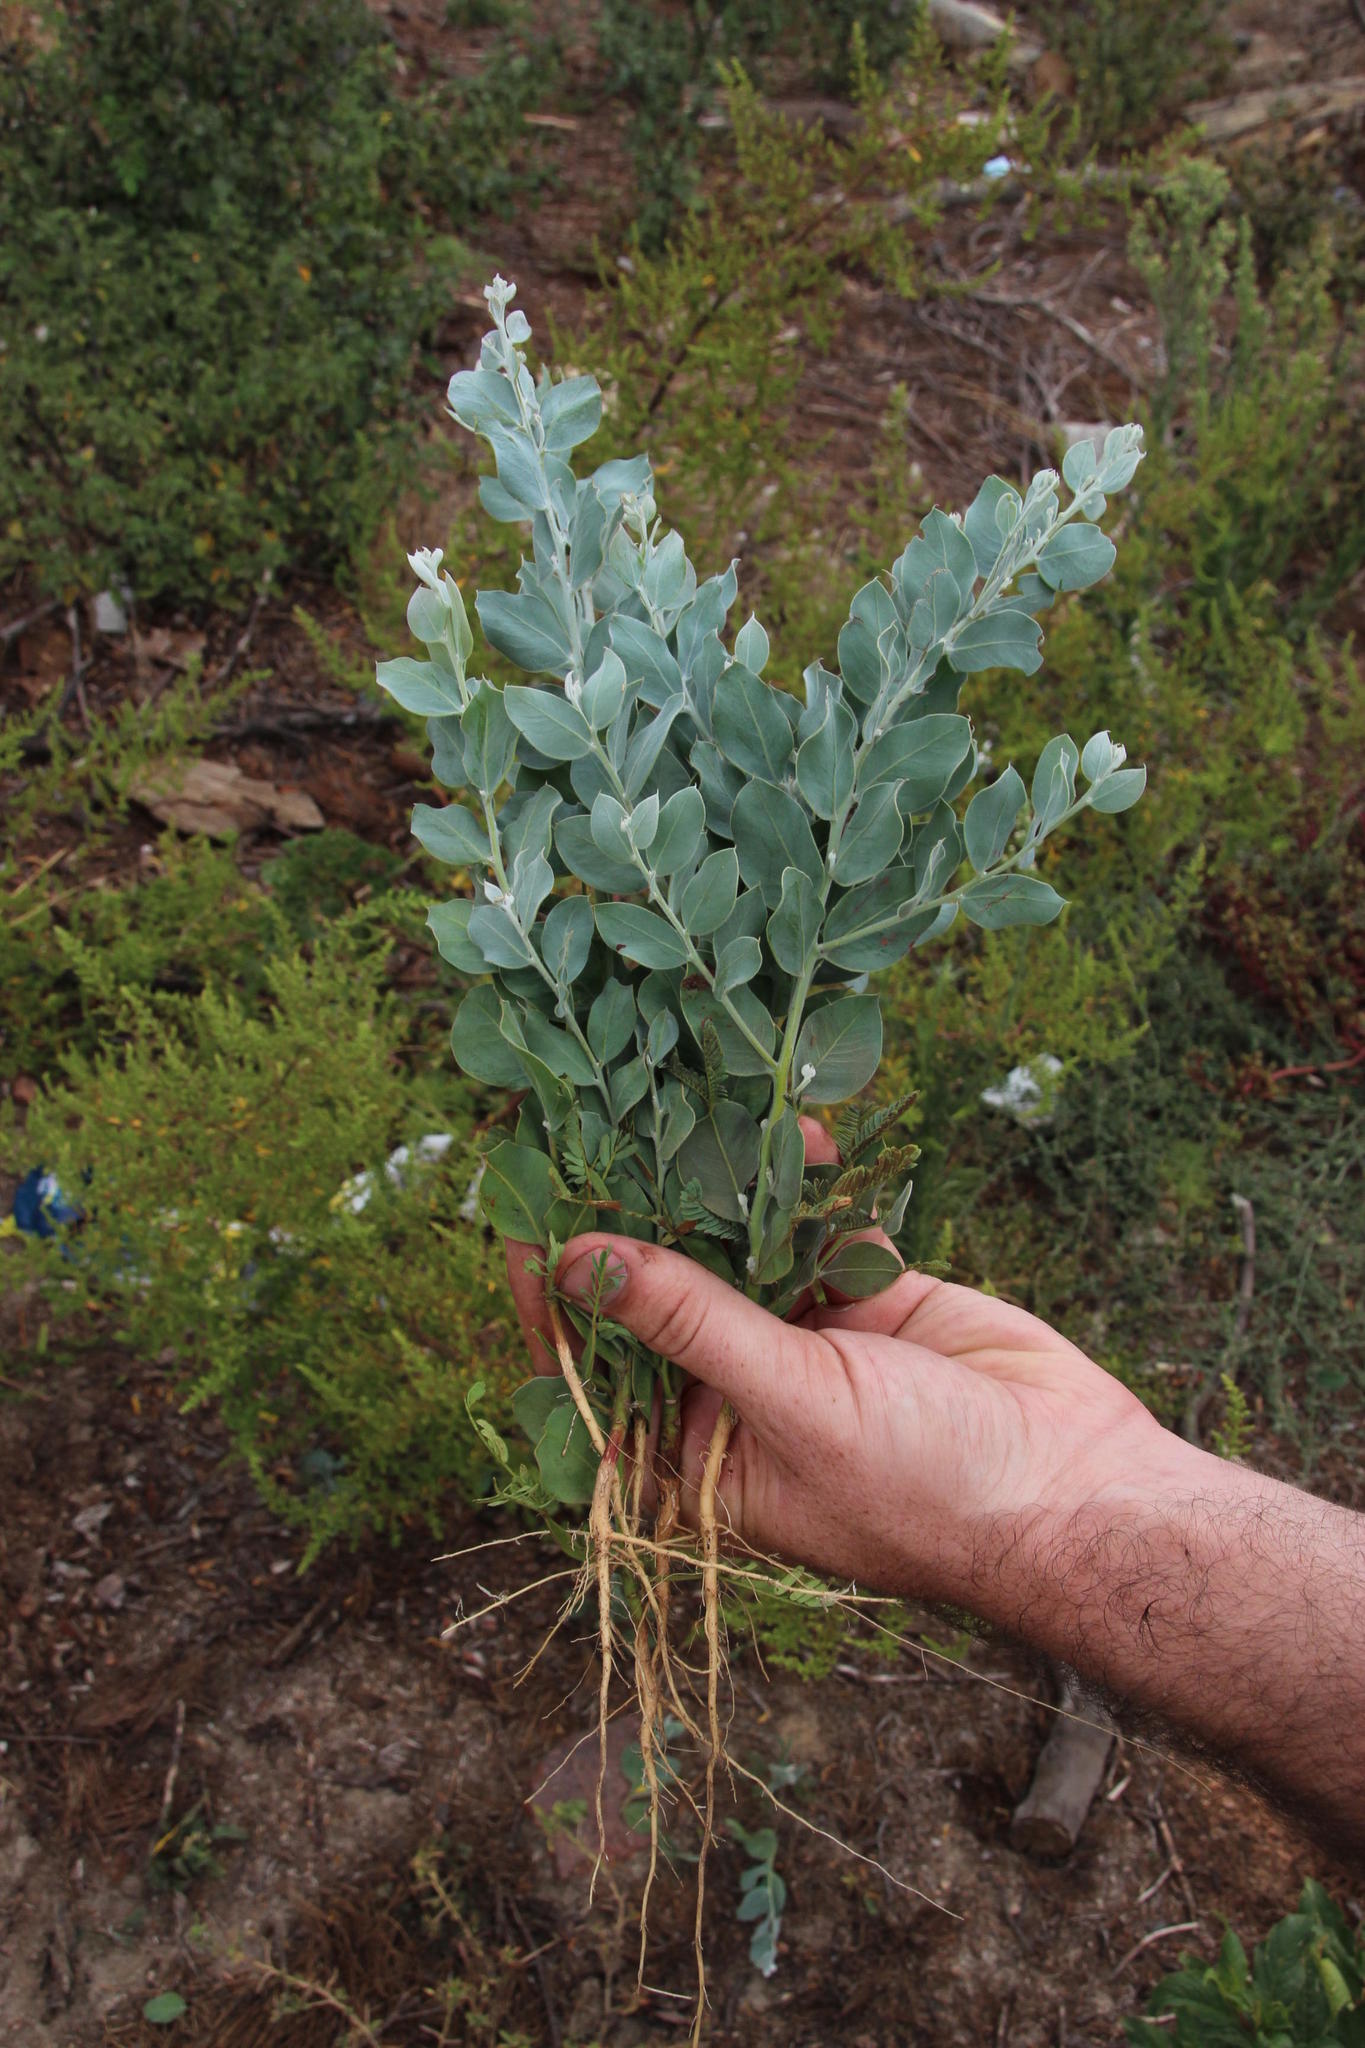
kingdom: Plantae
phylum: Tracheophyta
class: Magnoliopsida
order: Fabales
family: Fabaceae
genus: Acacia
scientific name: Acacia podalyriifolia
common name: Pearl wattle
